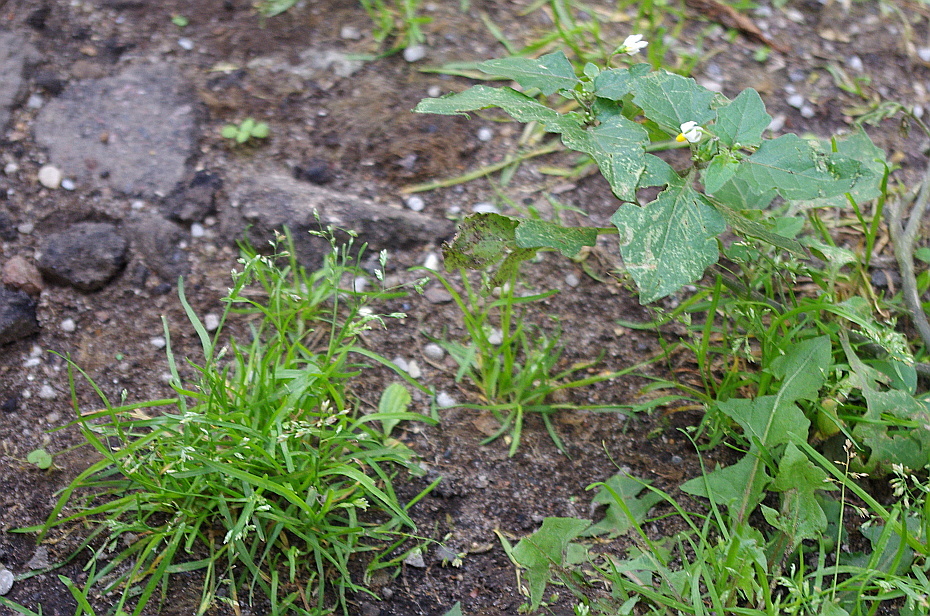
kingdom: Plantae
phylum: Tracheophyta
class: Magnoliopsida
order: Solanales
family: Solanaceae
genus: Solanum
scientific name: Solanum nigrum
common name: Black nightshade
